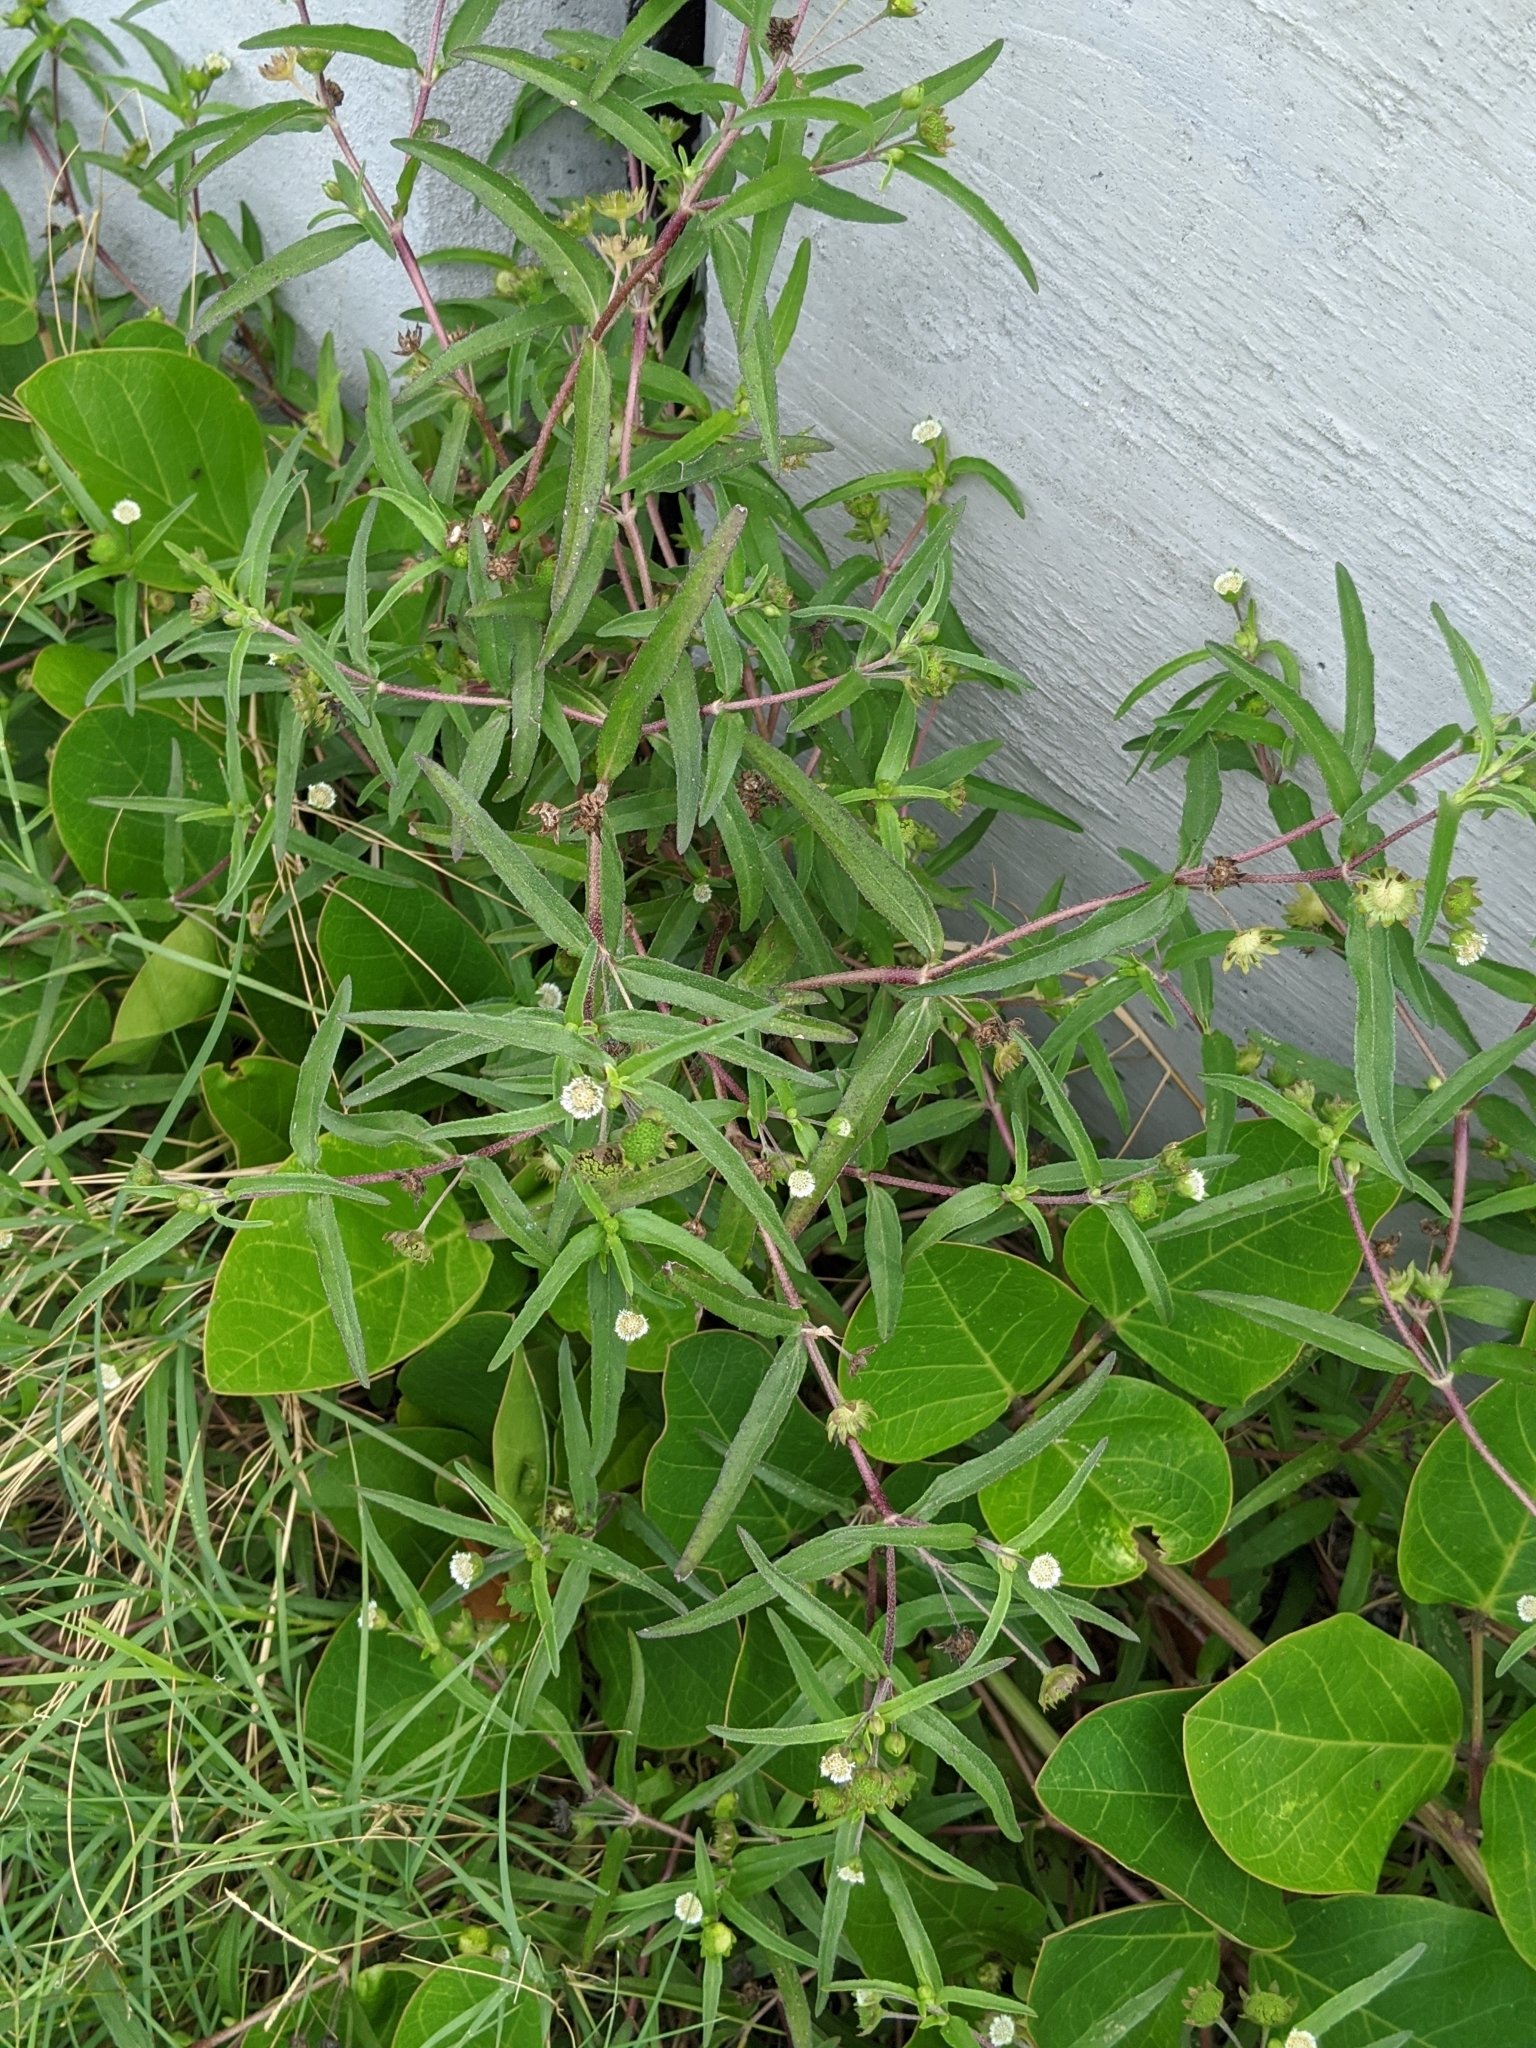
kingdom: Plantae
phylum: Tracheophyta
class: Magnoliopsida
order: Asterales
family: Asteraceae
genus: Eclipta
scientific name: Eclipta prostrata
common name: False daisy
